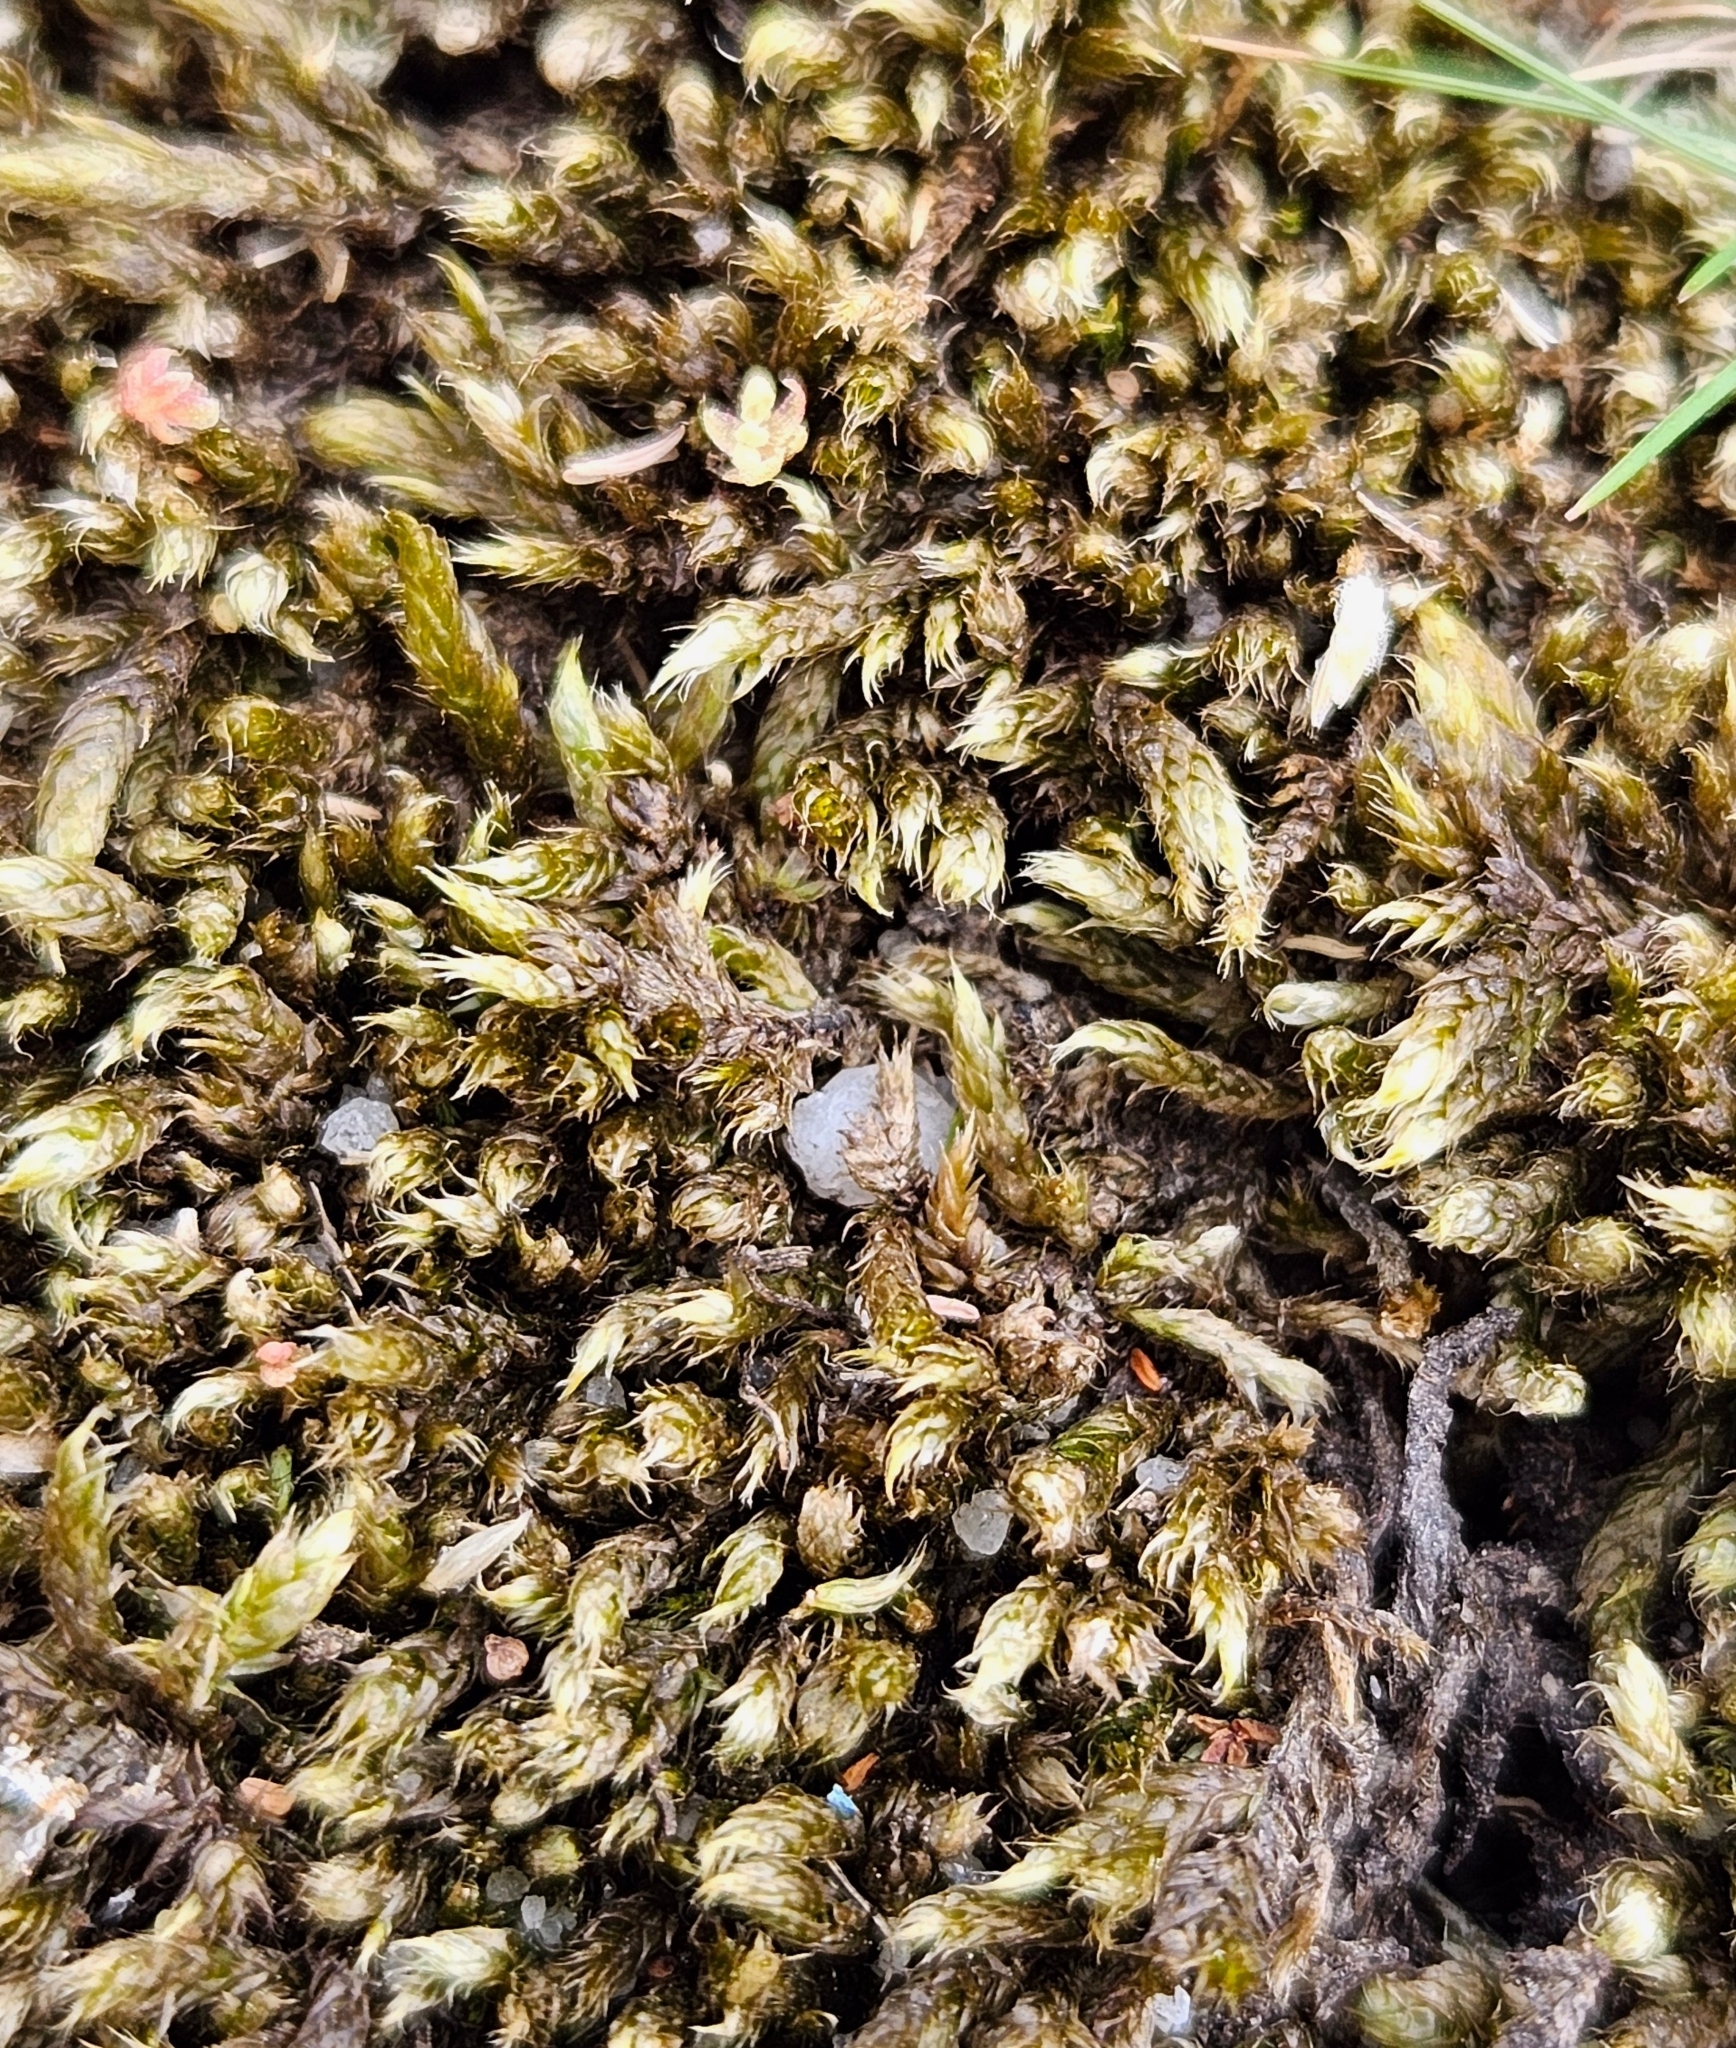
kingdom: Plantae
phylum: Bryophyta
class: Bryopsida
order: Hypnales
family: Hypnaceae
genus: Hypnum
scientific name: Hypnum cupressiforme
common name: Cypress-leaved plait-moss
